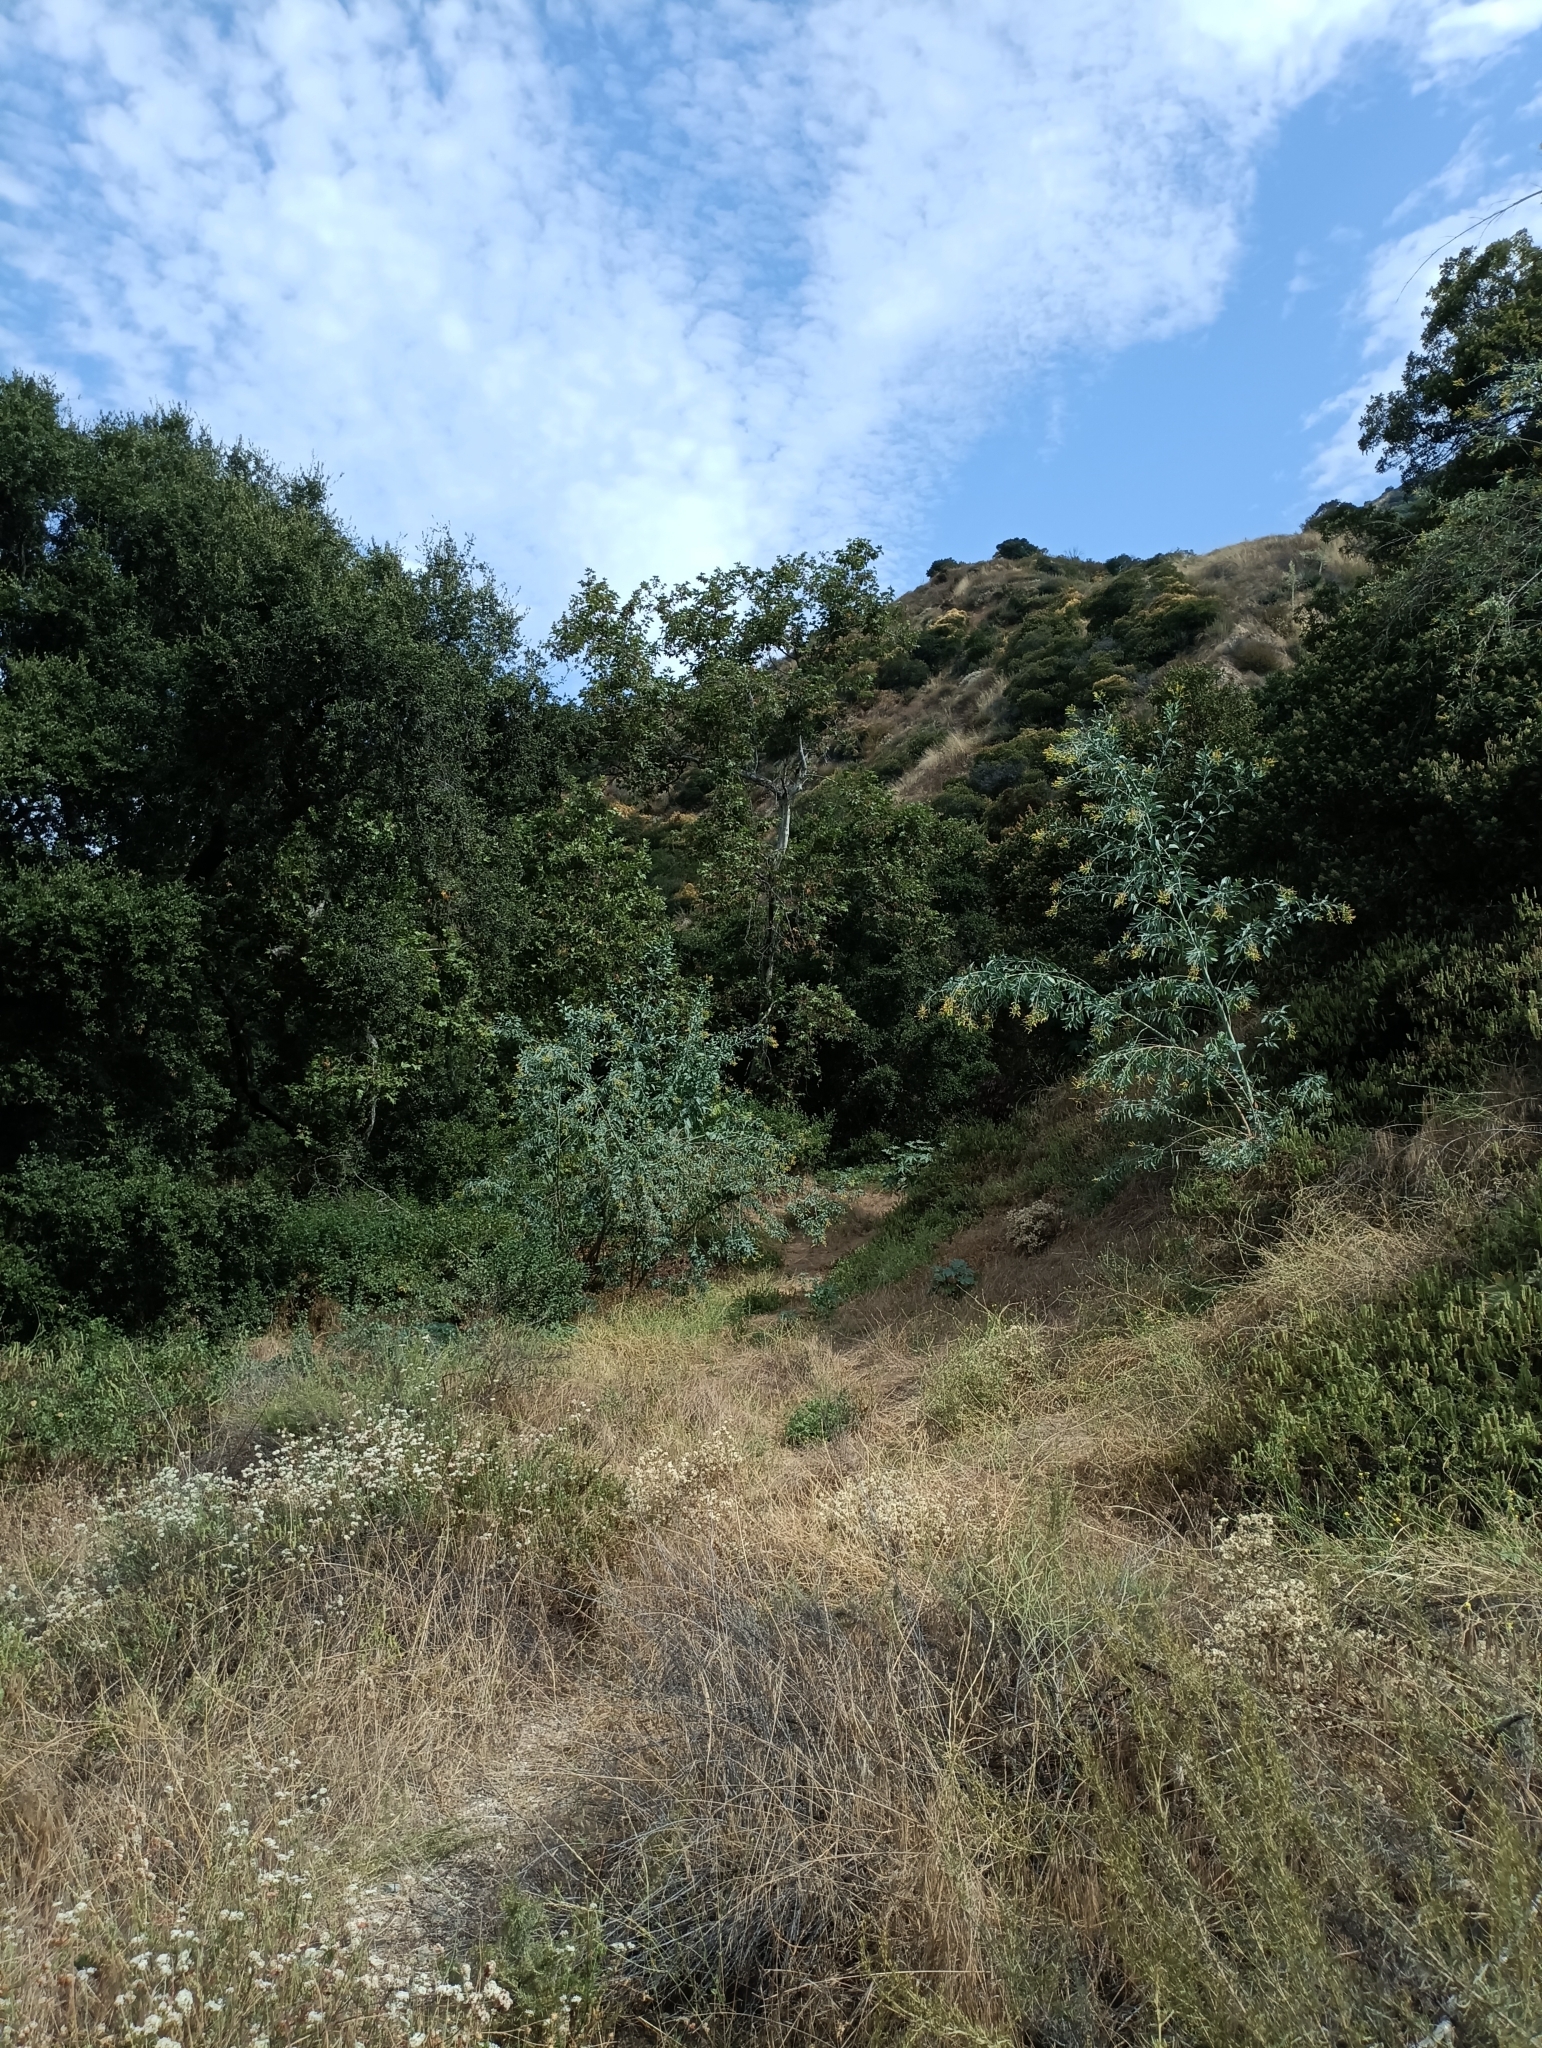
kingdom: Plantae
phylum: Tracheophyta
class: Magnoliopsida
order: Solanales
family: Solanaceae
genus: Nicotiana
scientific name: Nicotiana glauca
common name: Tree tobacco
